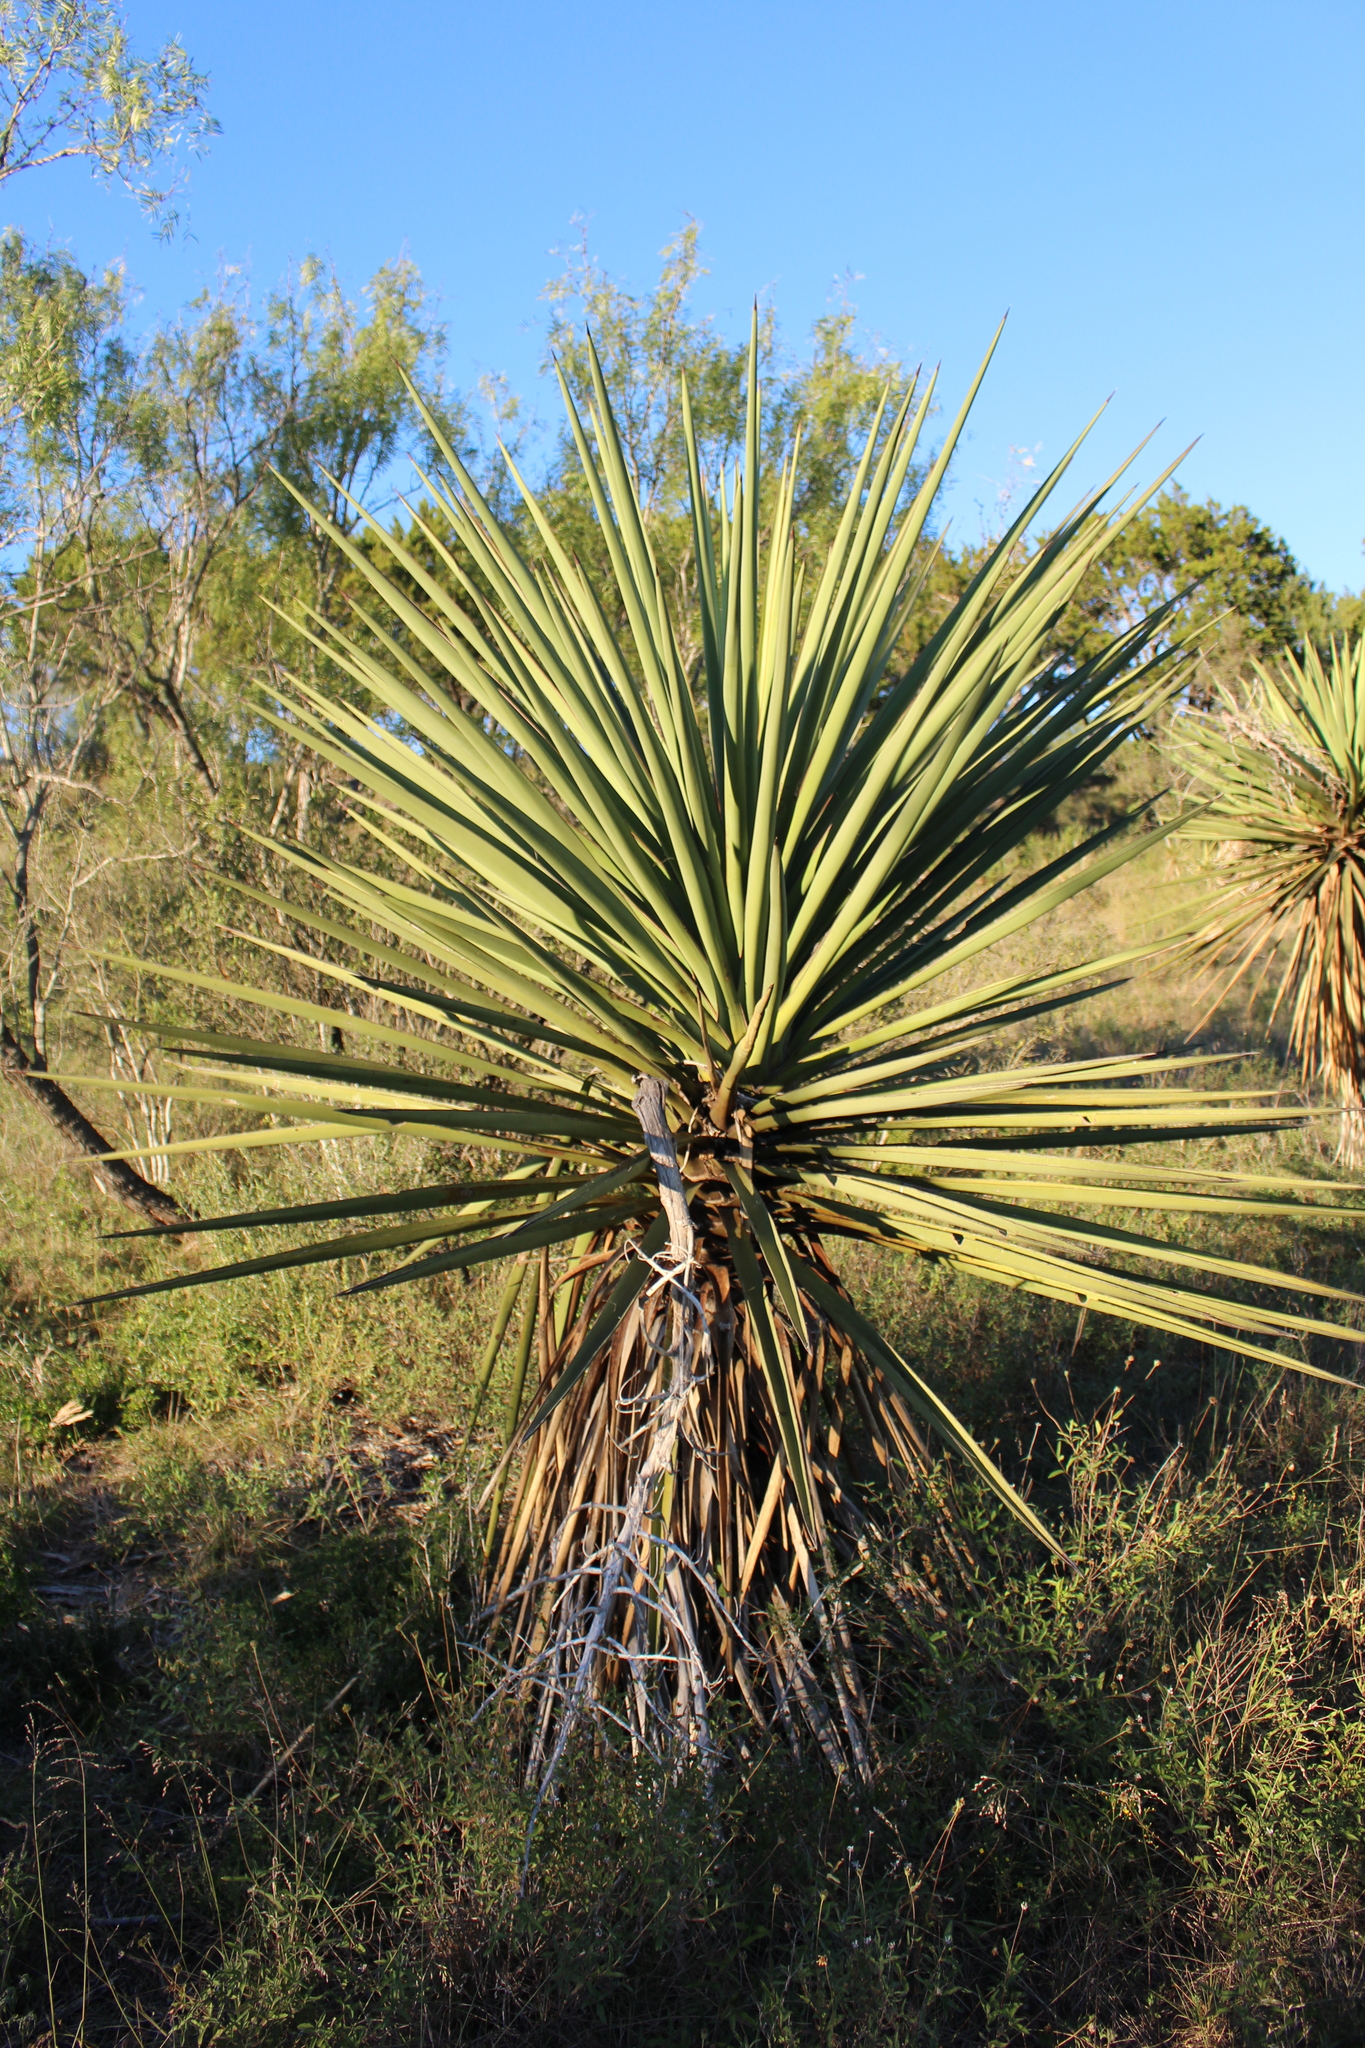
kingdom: Plantae
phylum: Tracheophyta
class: Liliopsida
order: Asparagales
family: Asparagaceae
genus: Yucca
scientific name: Yucca treculiana
